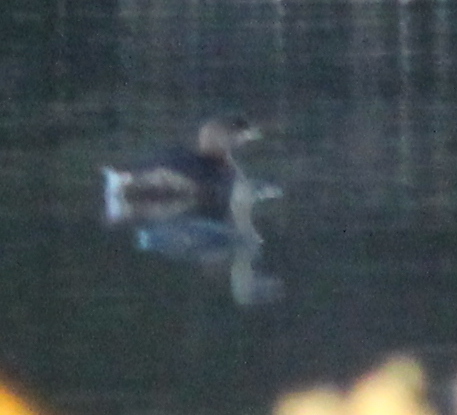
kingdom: Animalia
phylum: Chordata
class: Aves
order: Podicipediformes
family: Podicipedidae
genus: Podilymbus
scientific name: Podilymbus podiceps
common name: Pied-billed grebe
